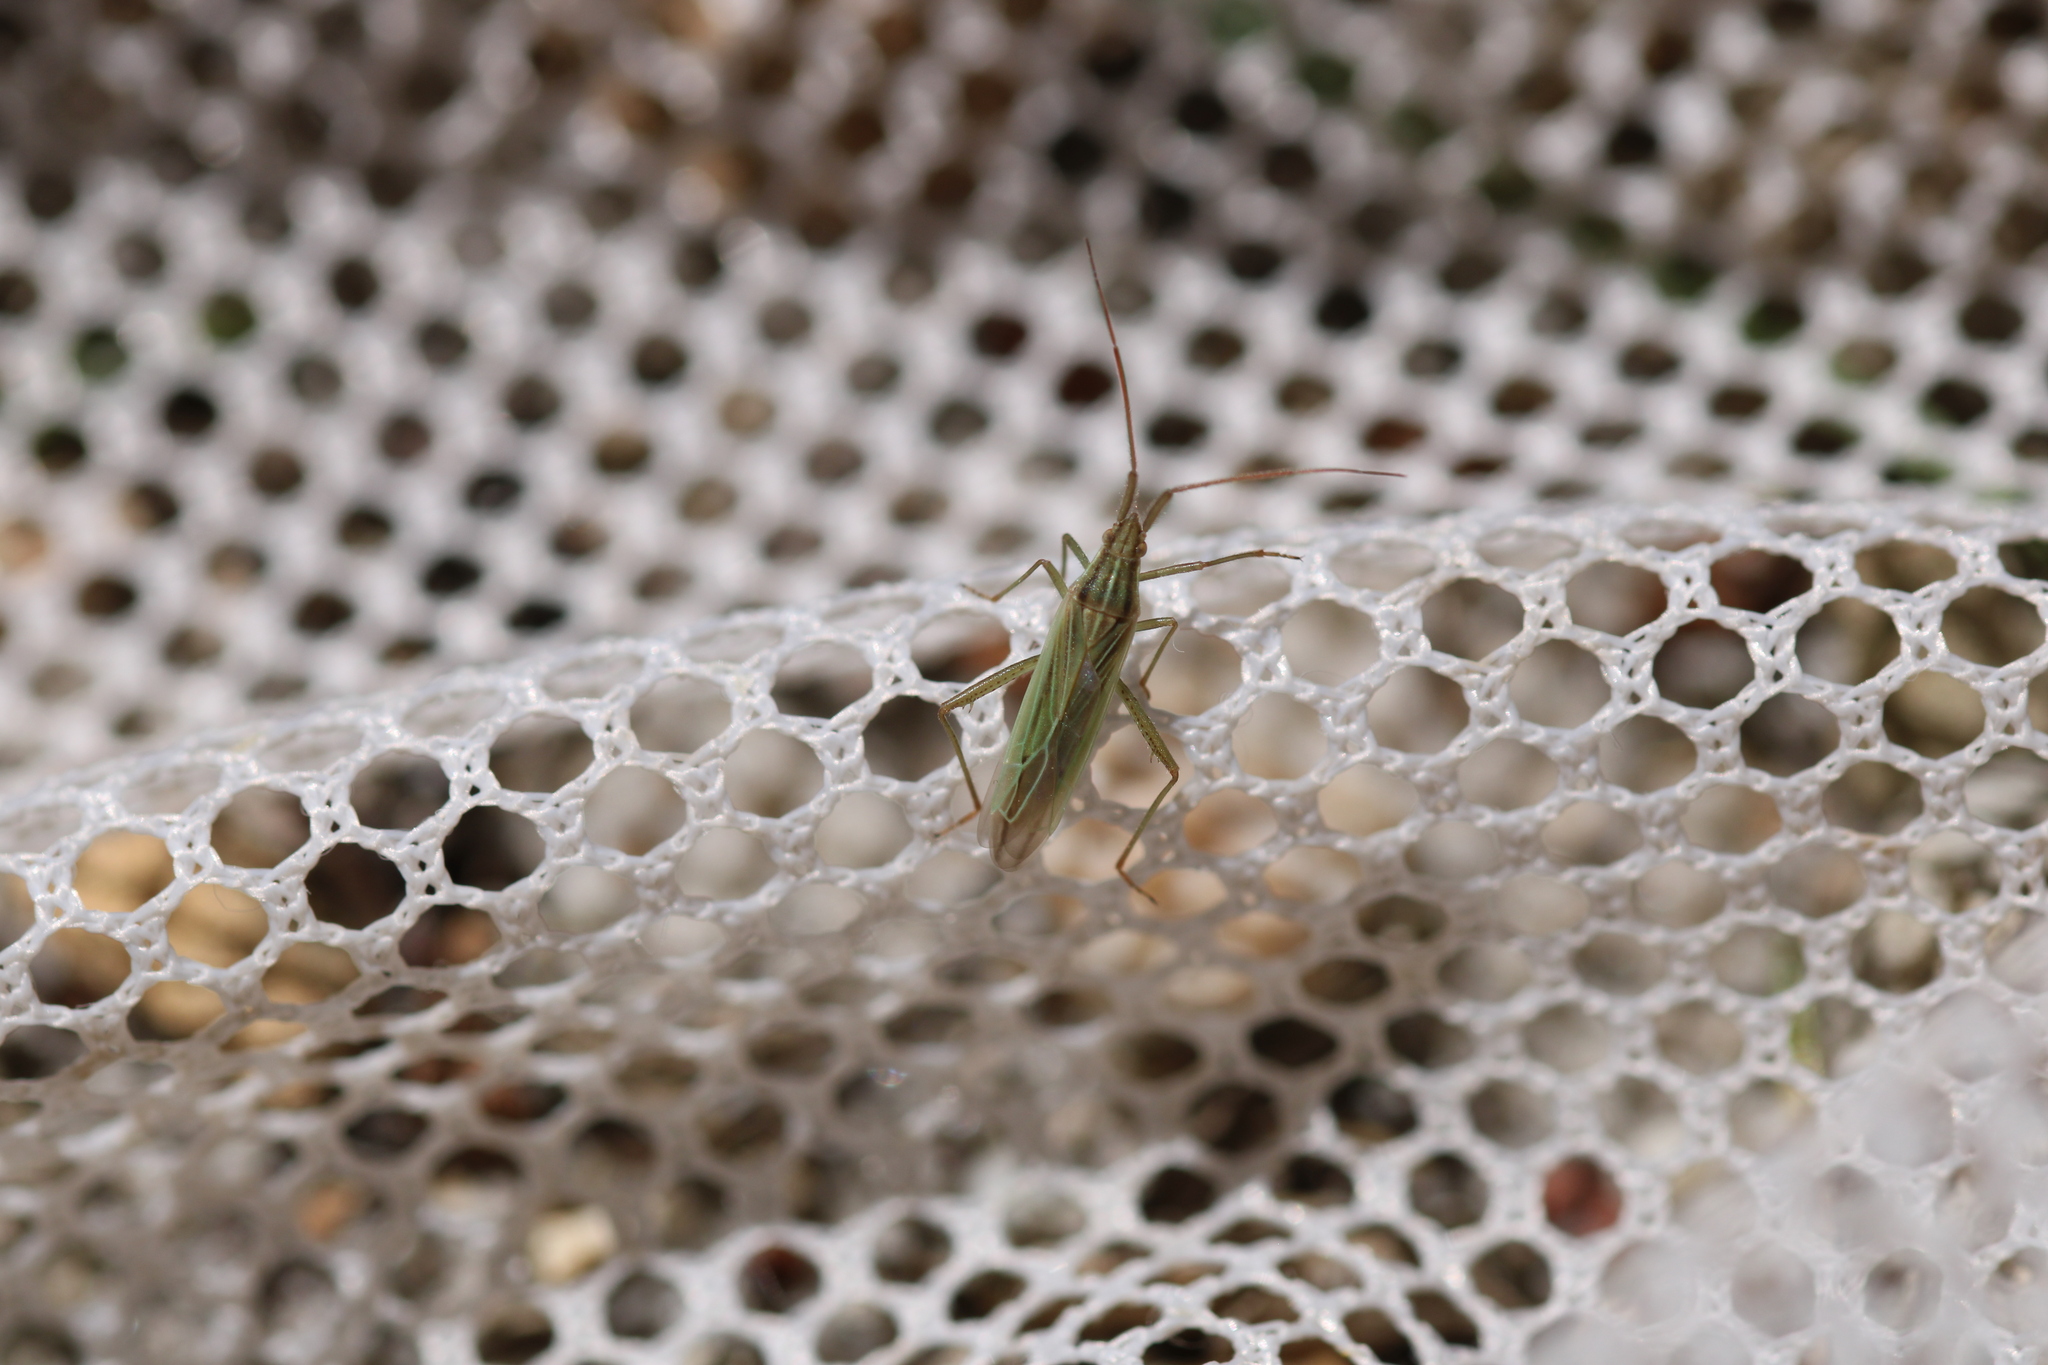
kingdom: Animalia
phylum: Arthropoda
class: Insecta
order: Hemiptera
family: Miridae
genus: Stenodema
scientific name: Stenodema calcarata
